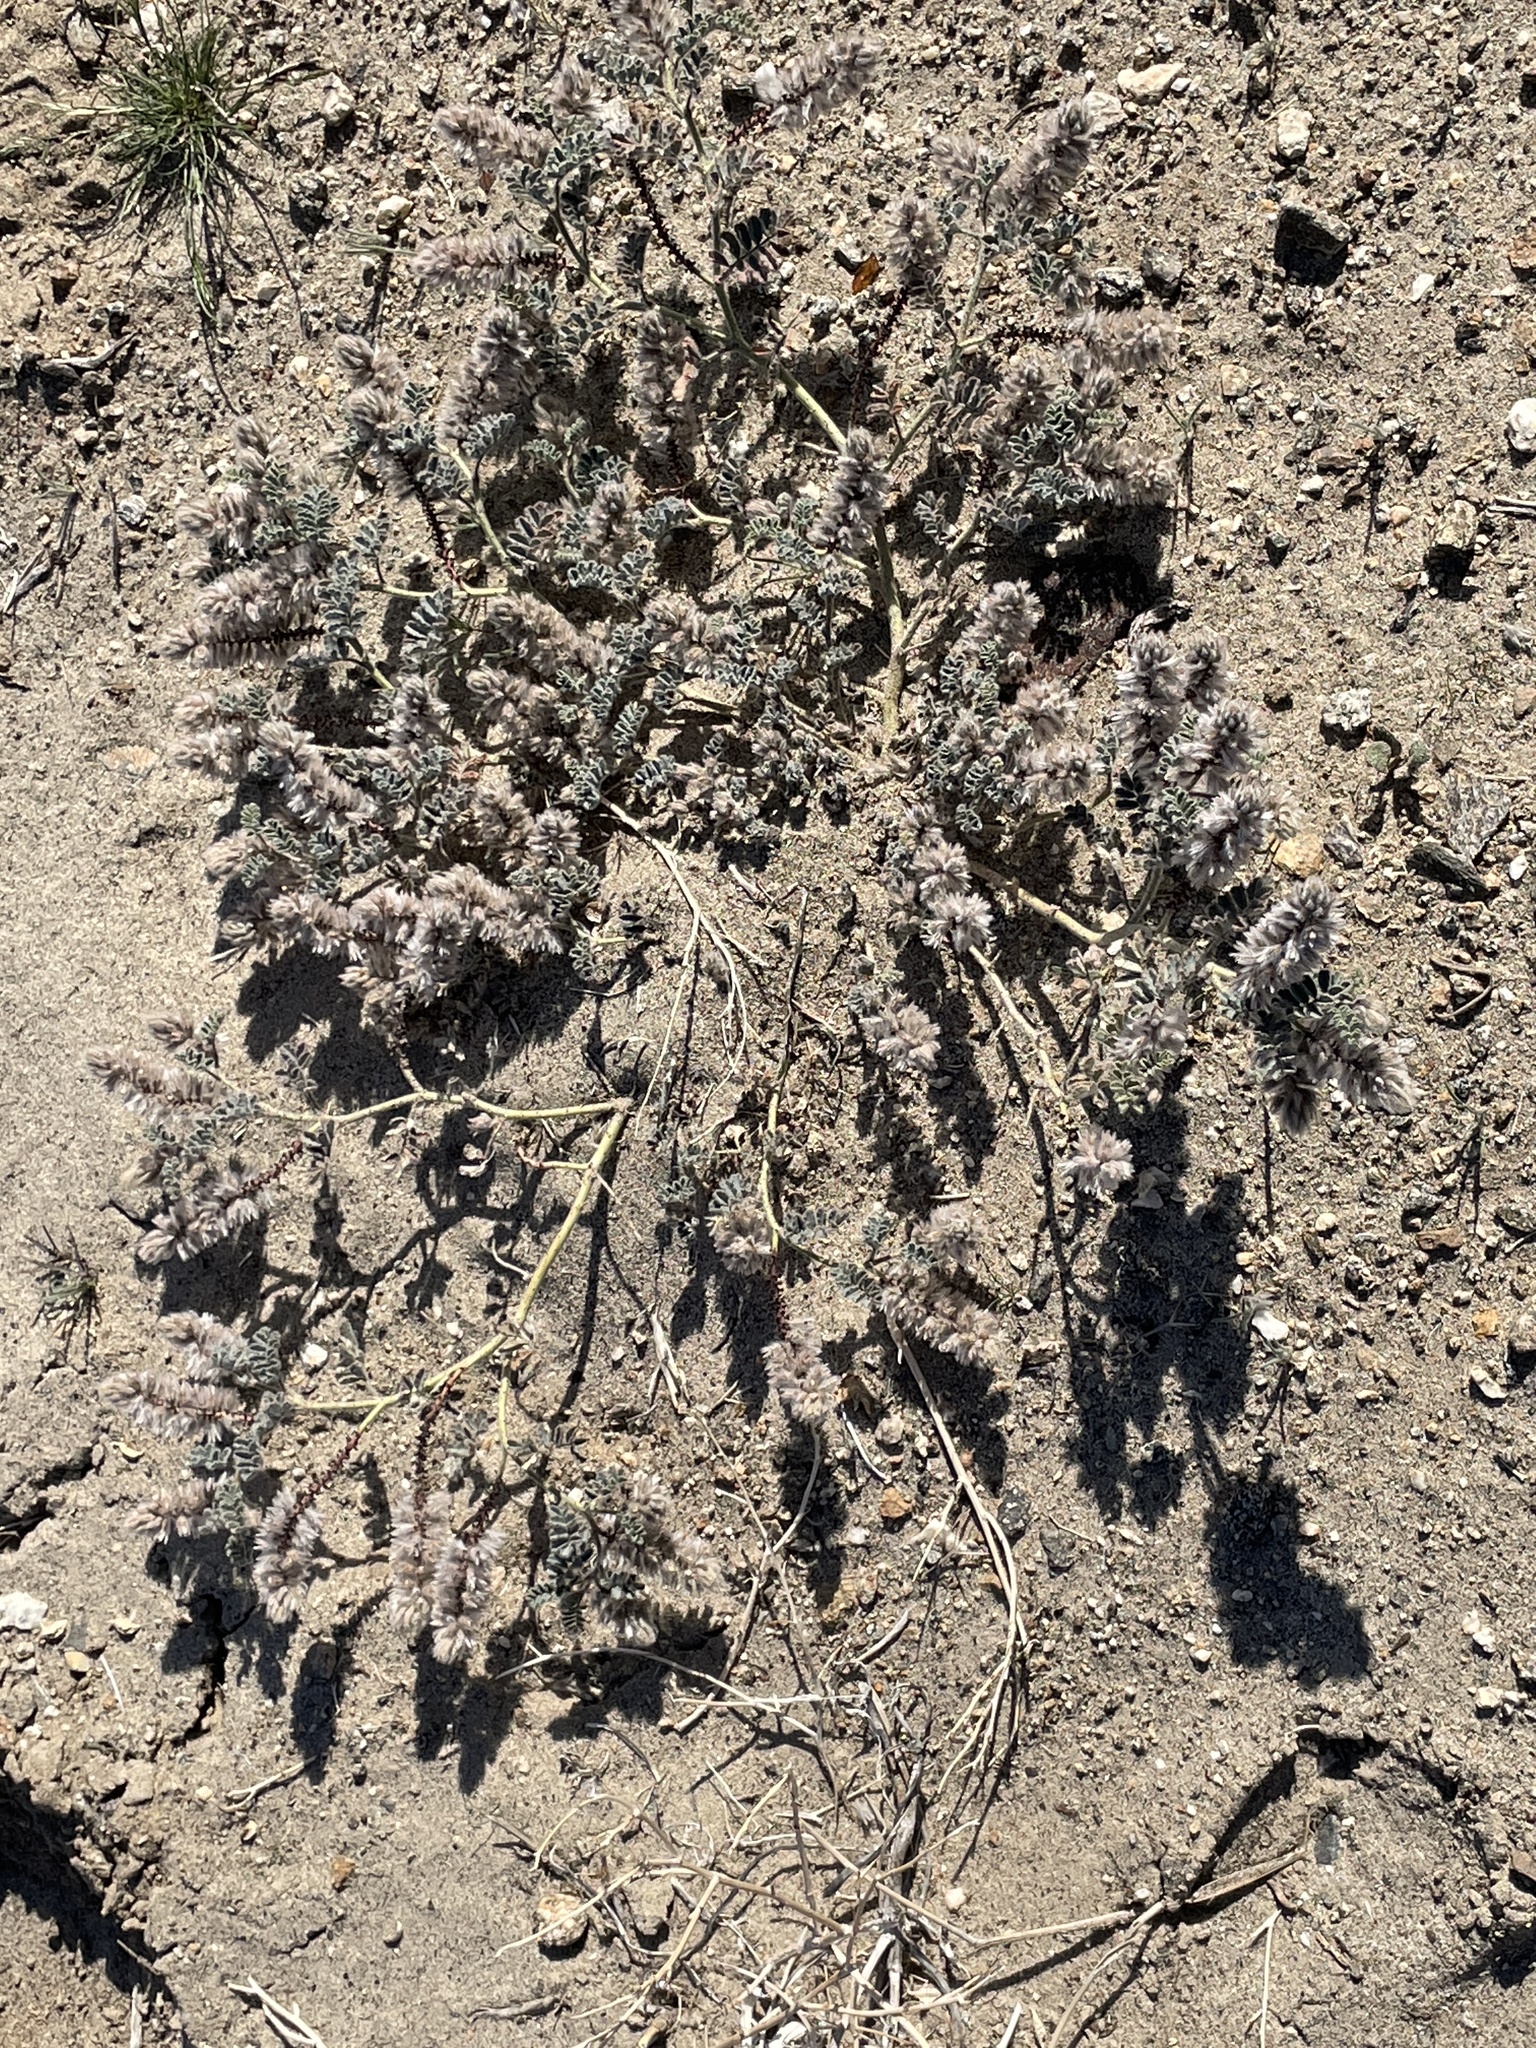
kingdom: Plantae
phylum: Tracheophyta
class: Magnoliopsida
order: Fabales
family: Fabaceae
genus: Dalea
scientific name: Dalea mollissima
